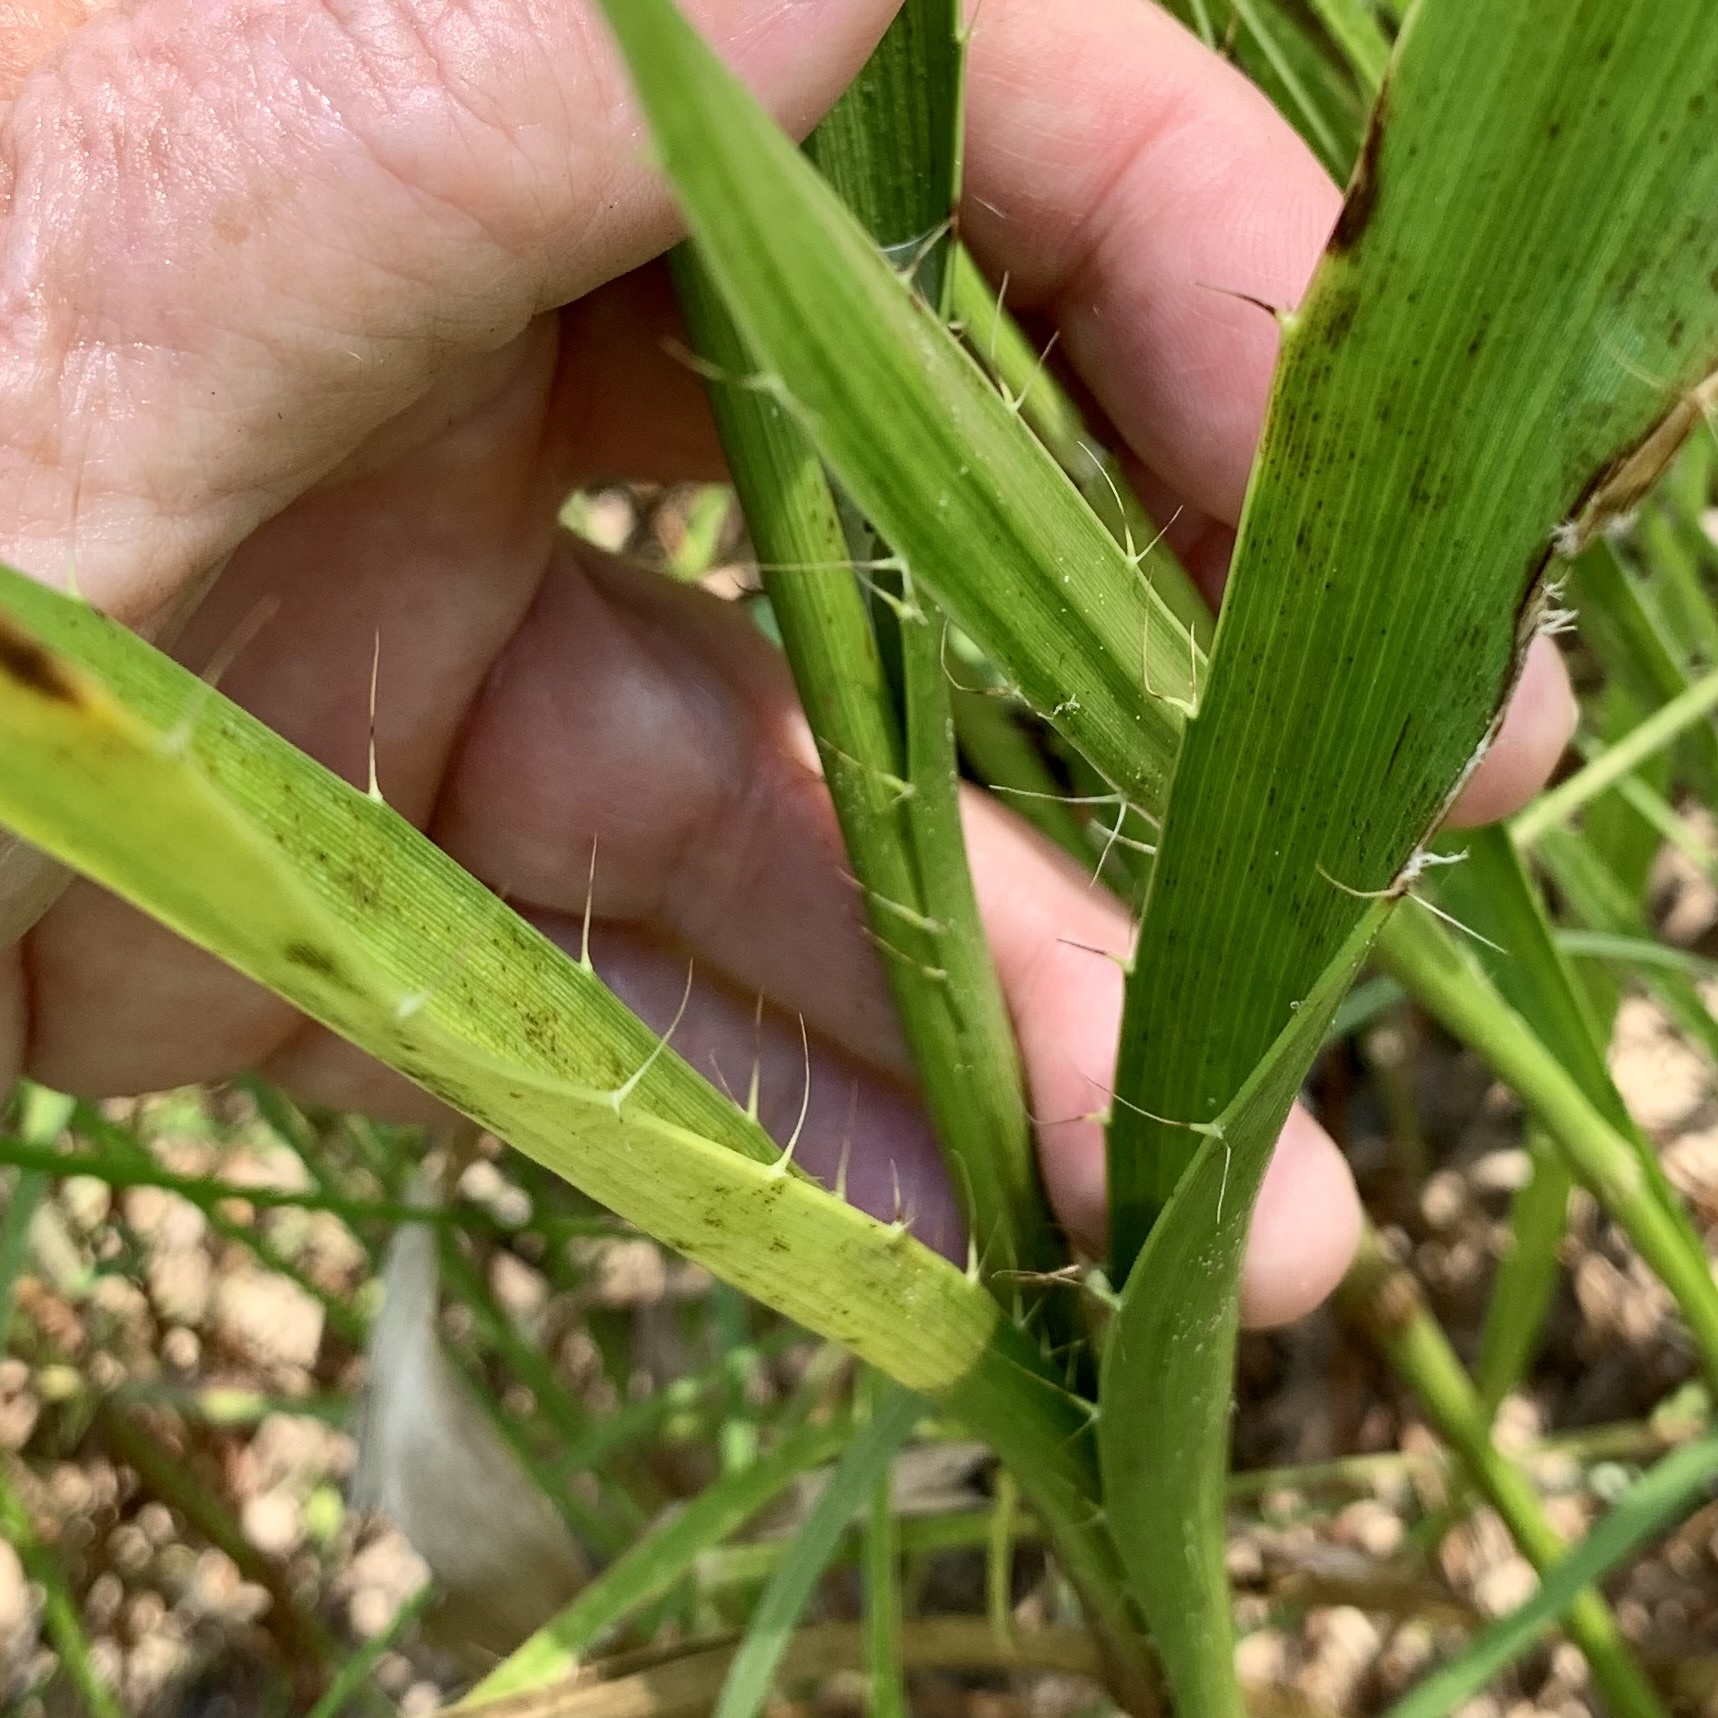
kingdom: Plantae
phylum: Tracheophyta
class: Magnoliopsida
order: Apiales
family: Apiaceae
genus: Eryngium
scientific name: Eryngium yuccifolium
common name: Button eryngo
